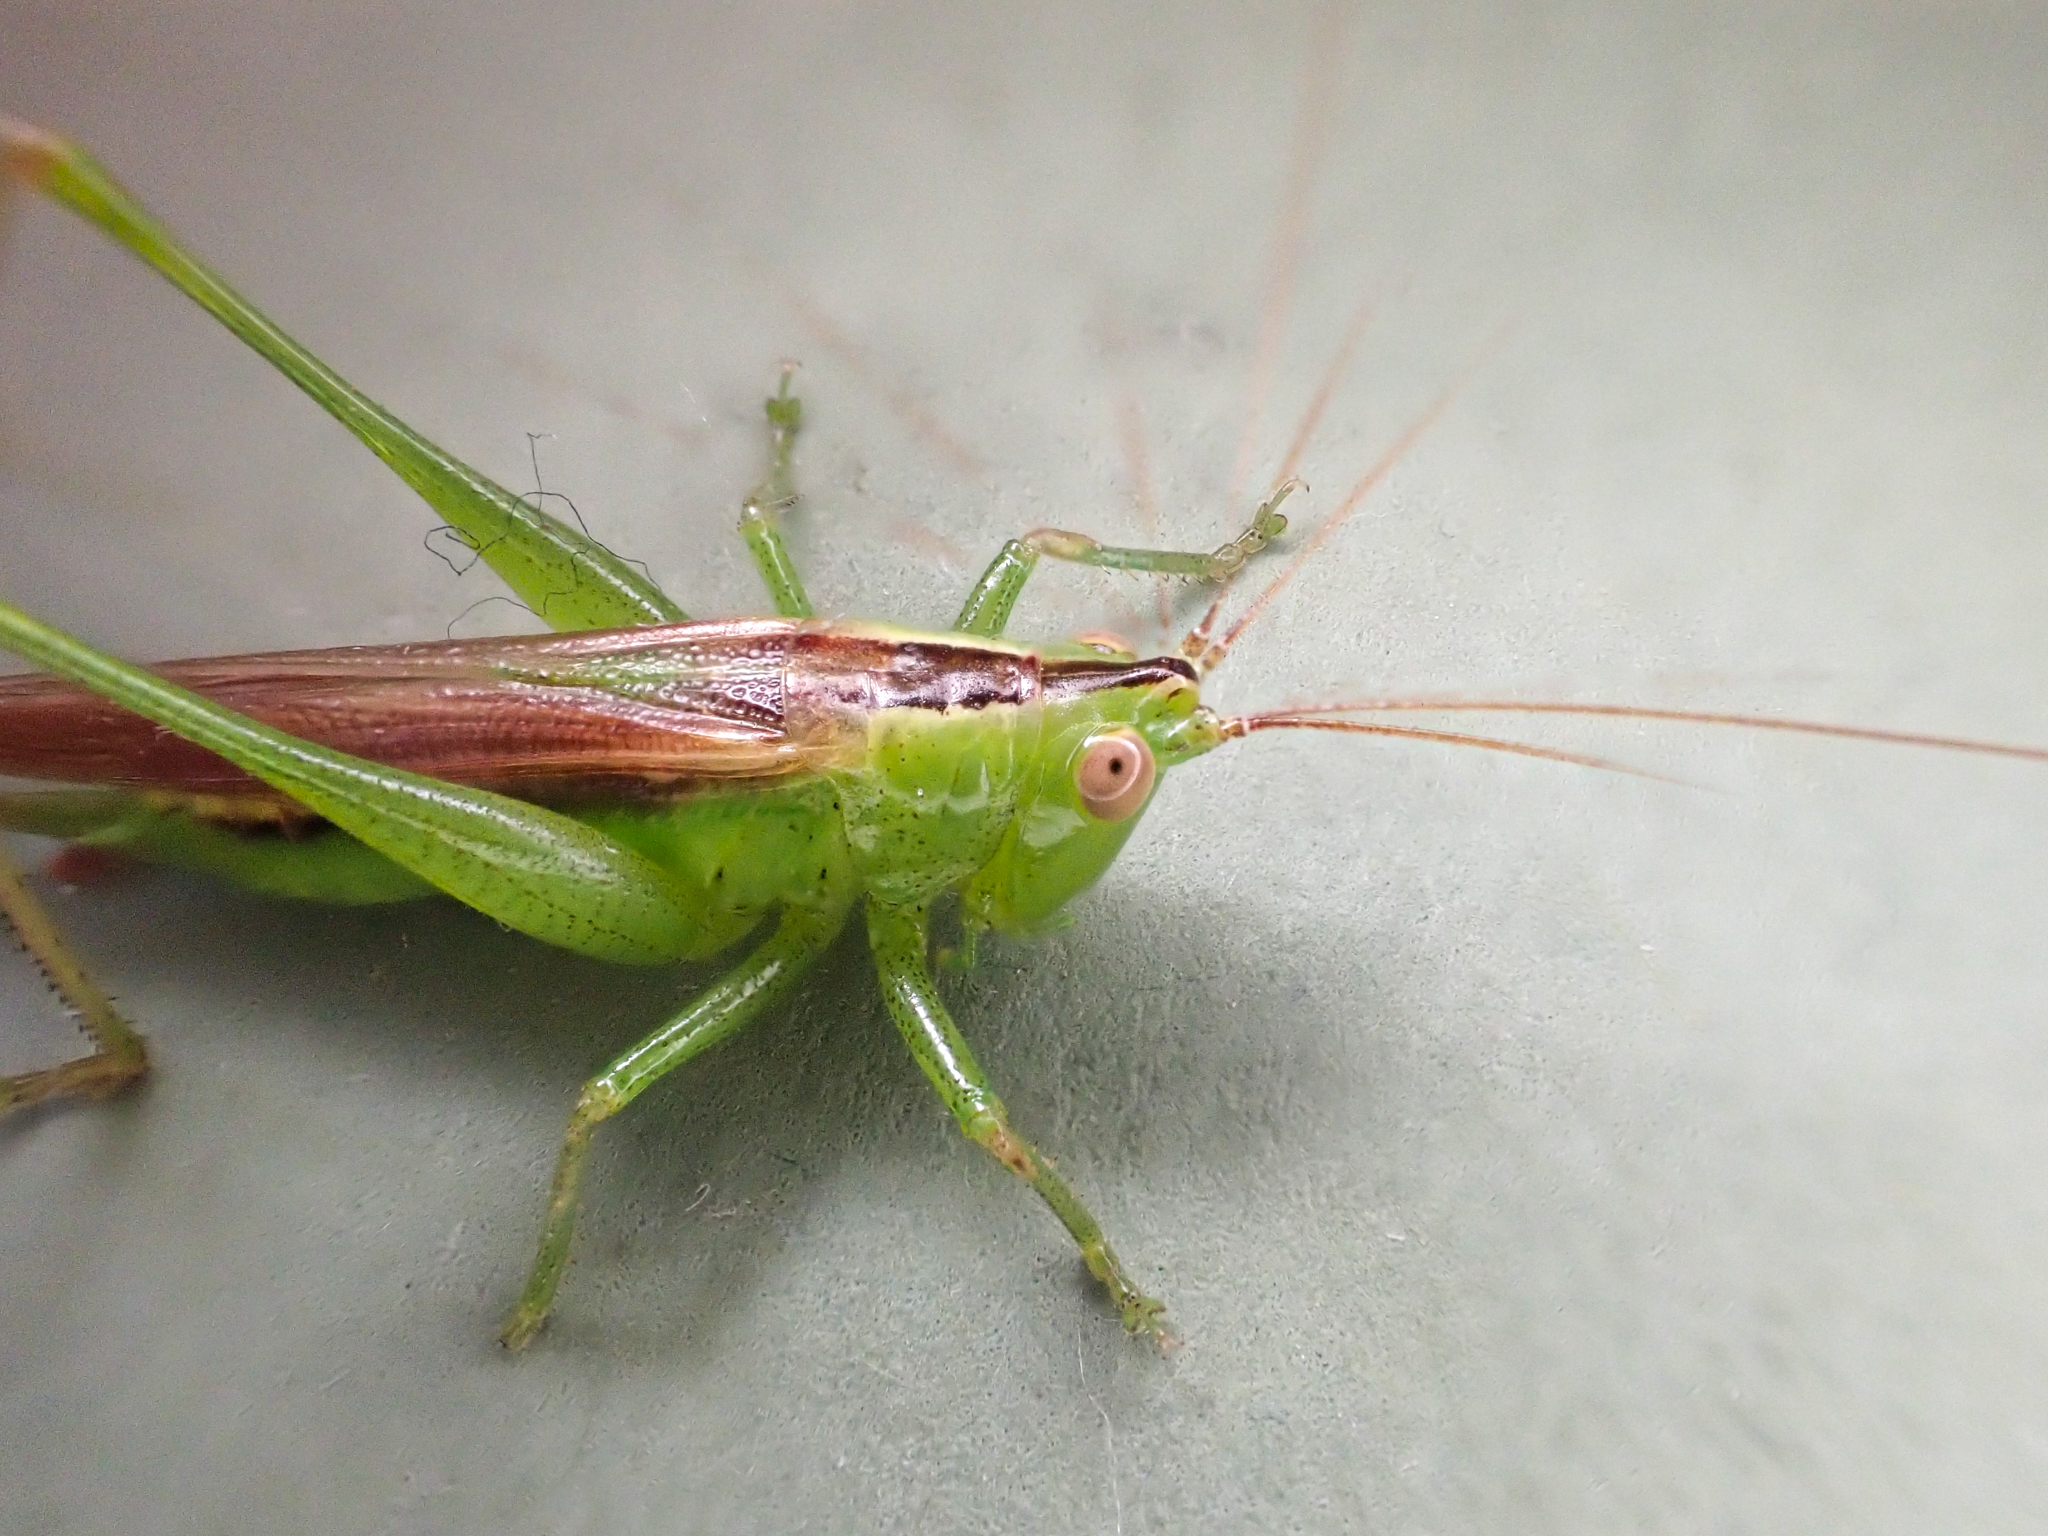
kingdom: Animalia
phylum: Arthropoda
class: Insecta
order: Orthoptera
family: Tettigoniidae
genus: Conocephalus
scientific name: Conocephalus fasciatus
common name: Slender meadow katydid
